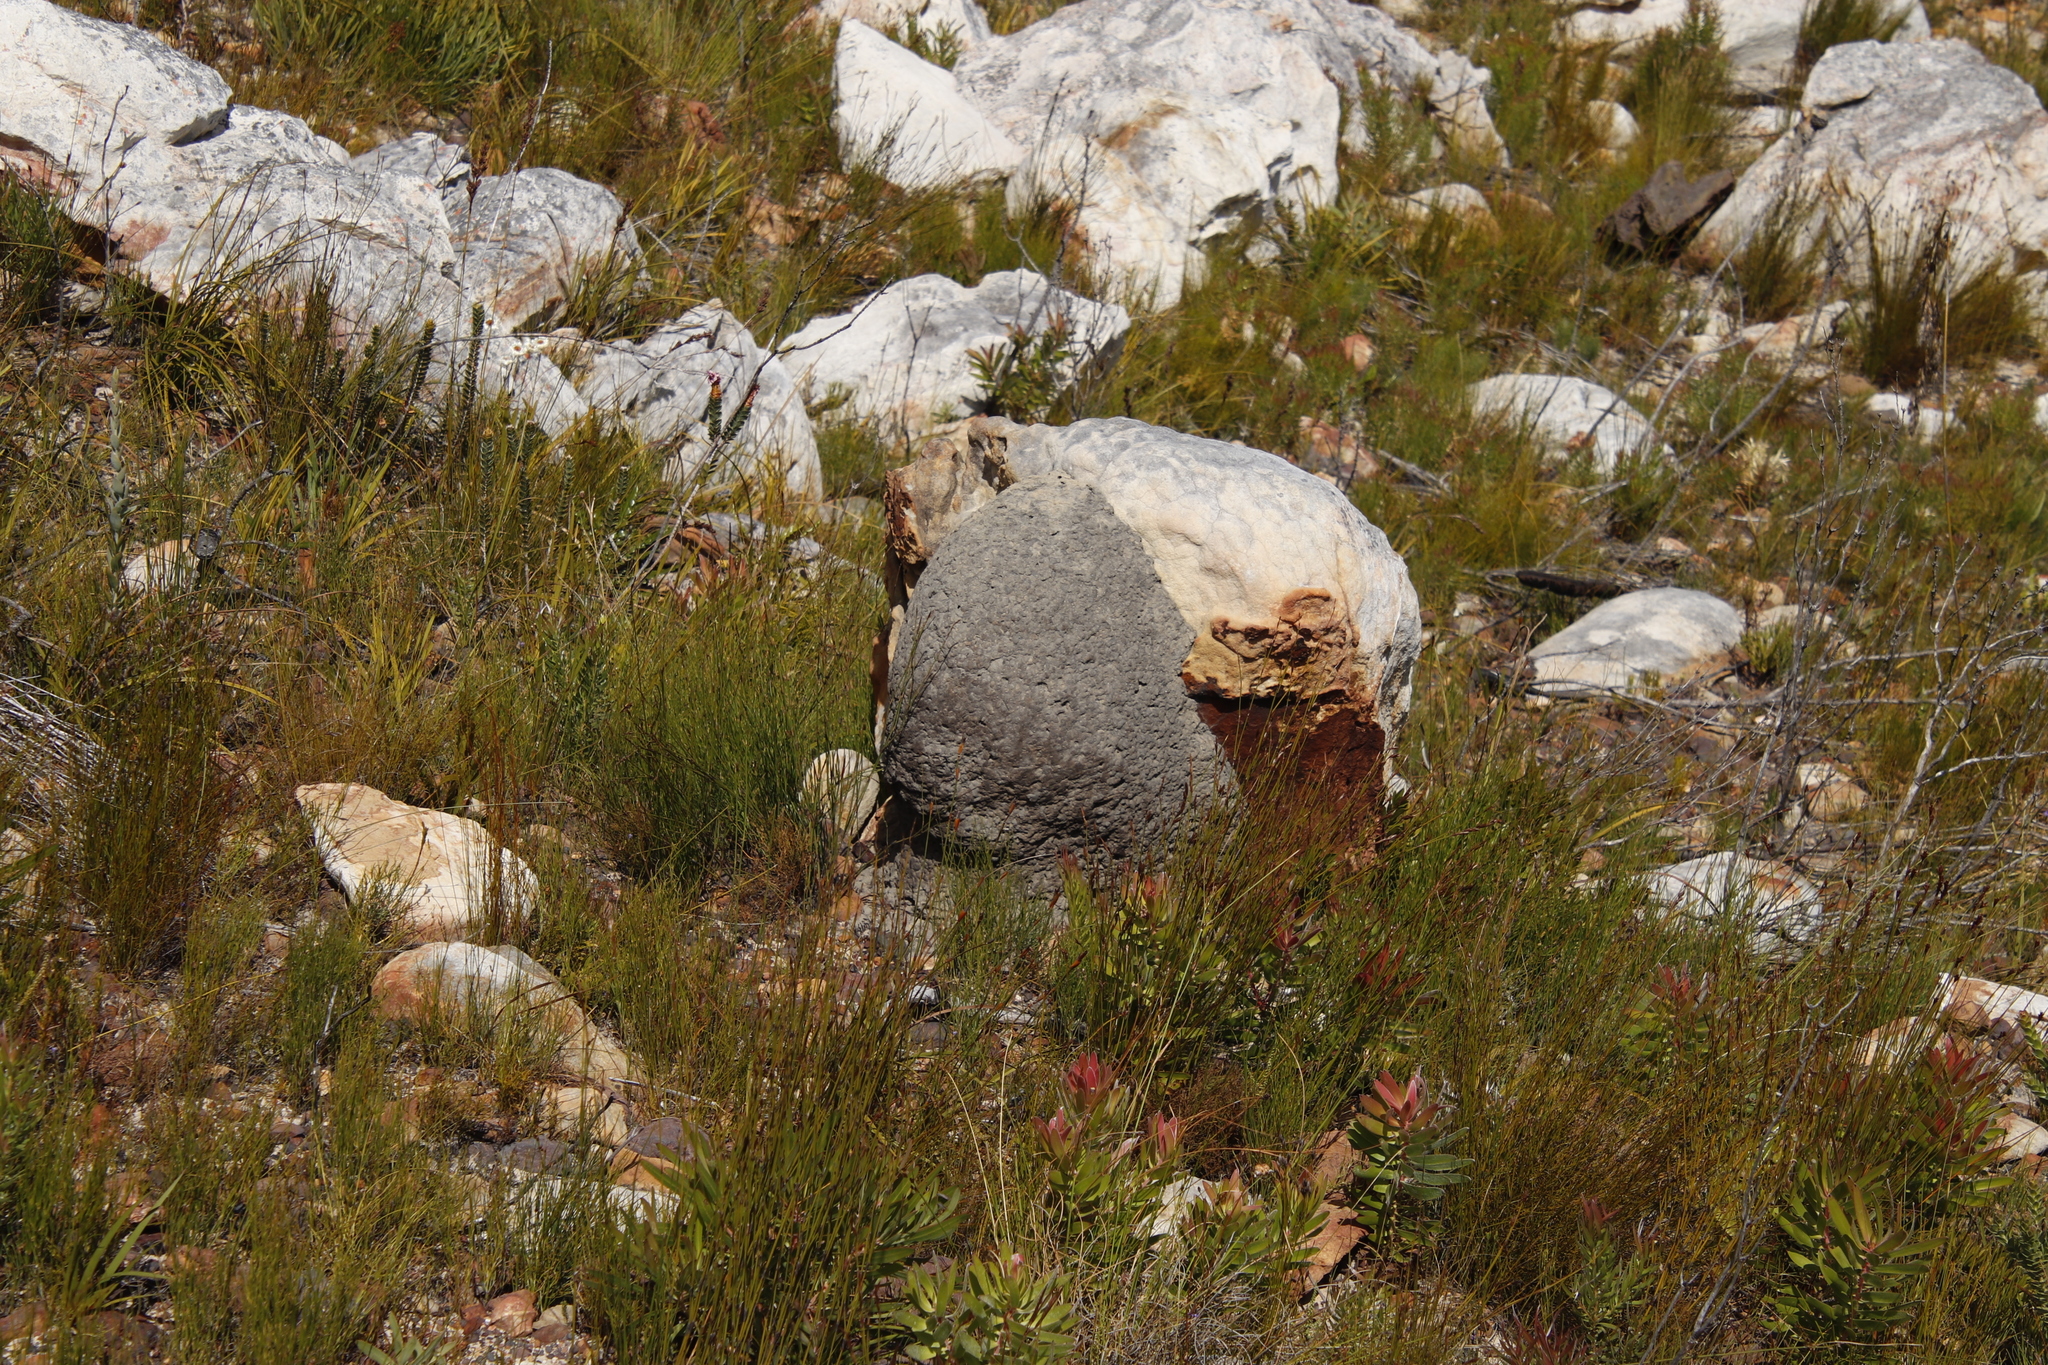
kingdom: Animalia
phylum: Arthropoda
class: Insecta
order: Blattodea
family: Termitidae
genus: Amitermes
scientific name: Amitermes hastatus
